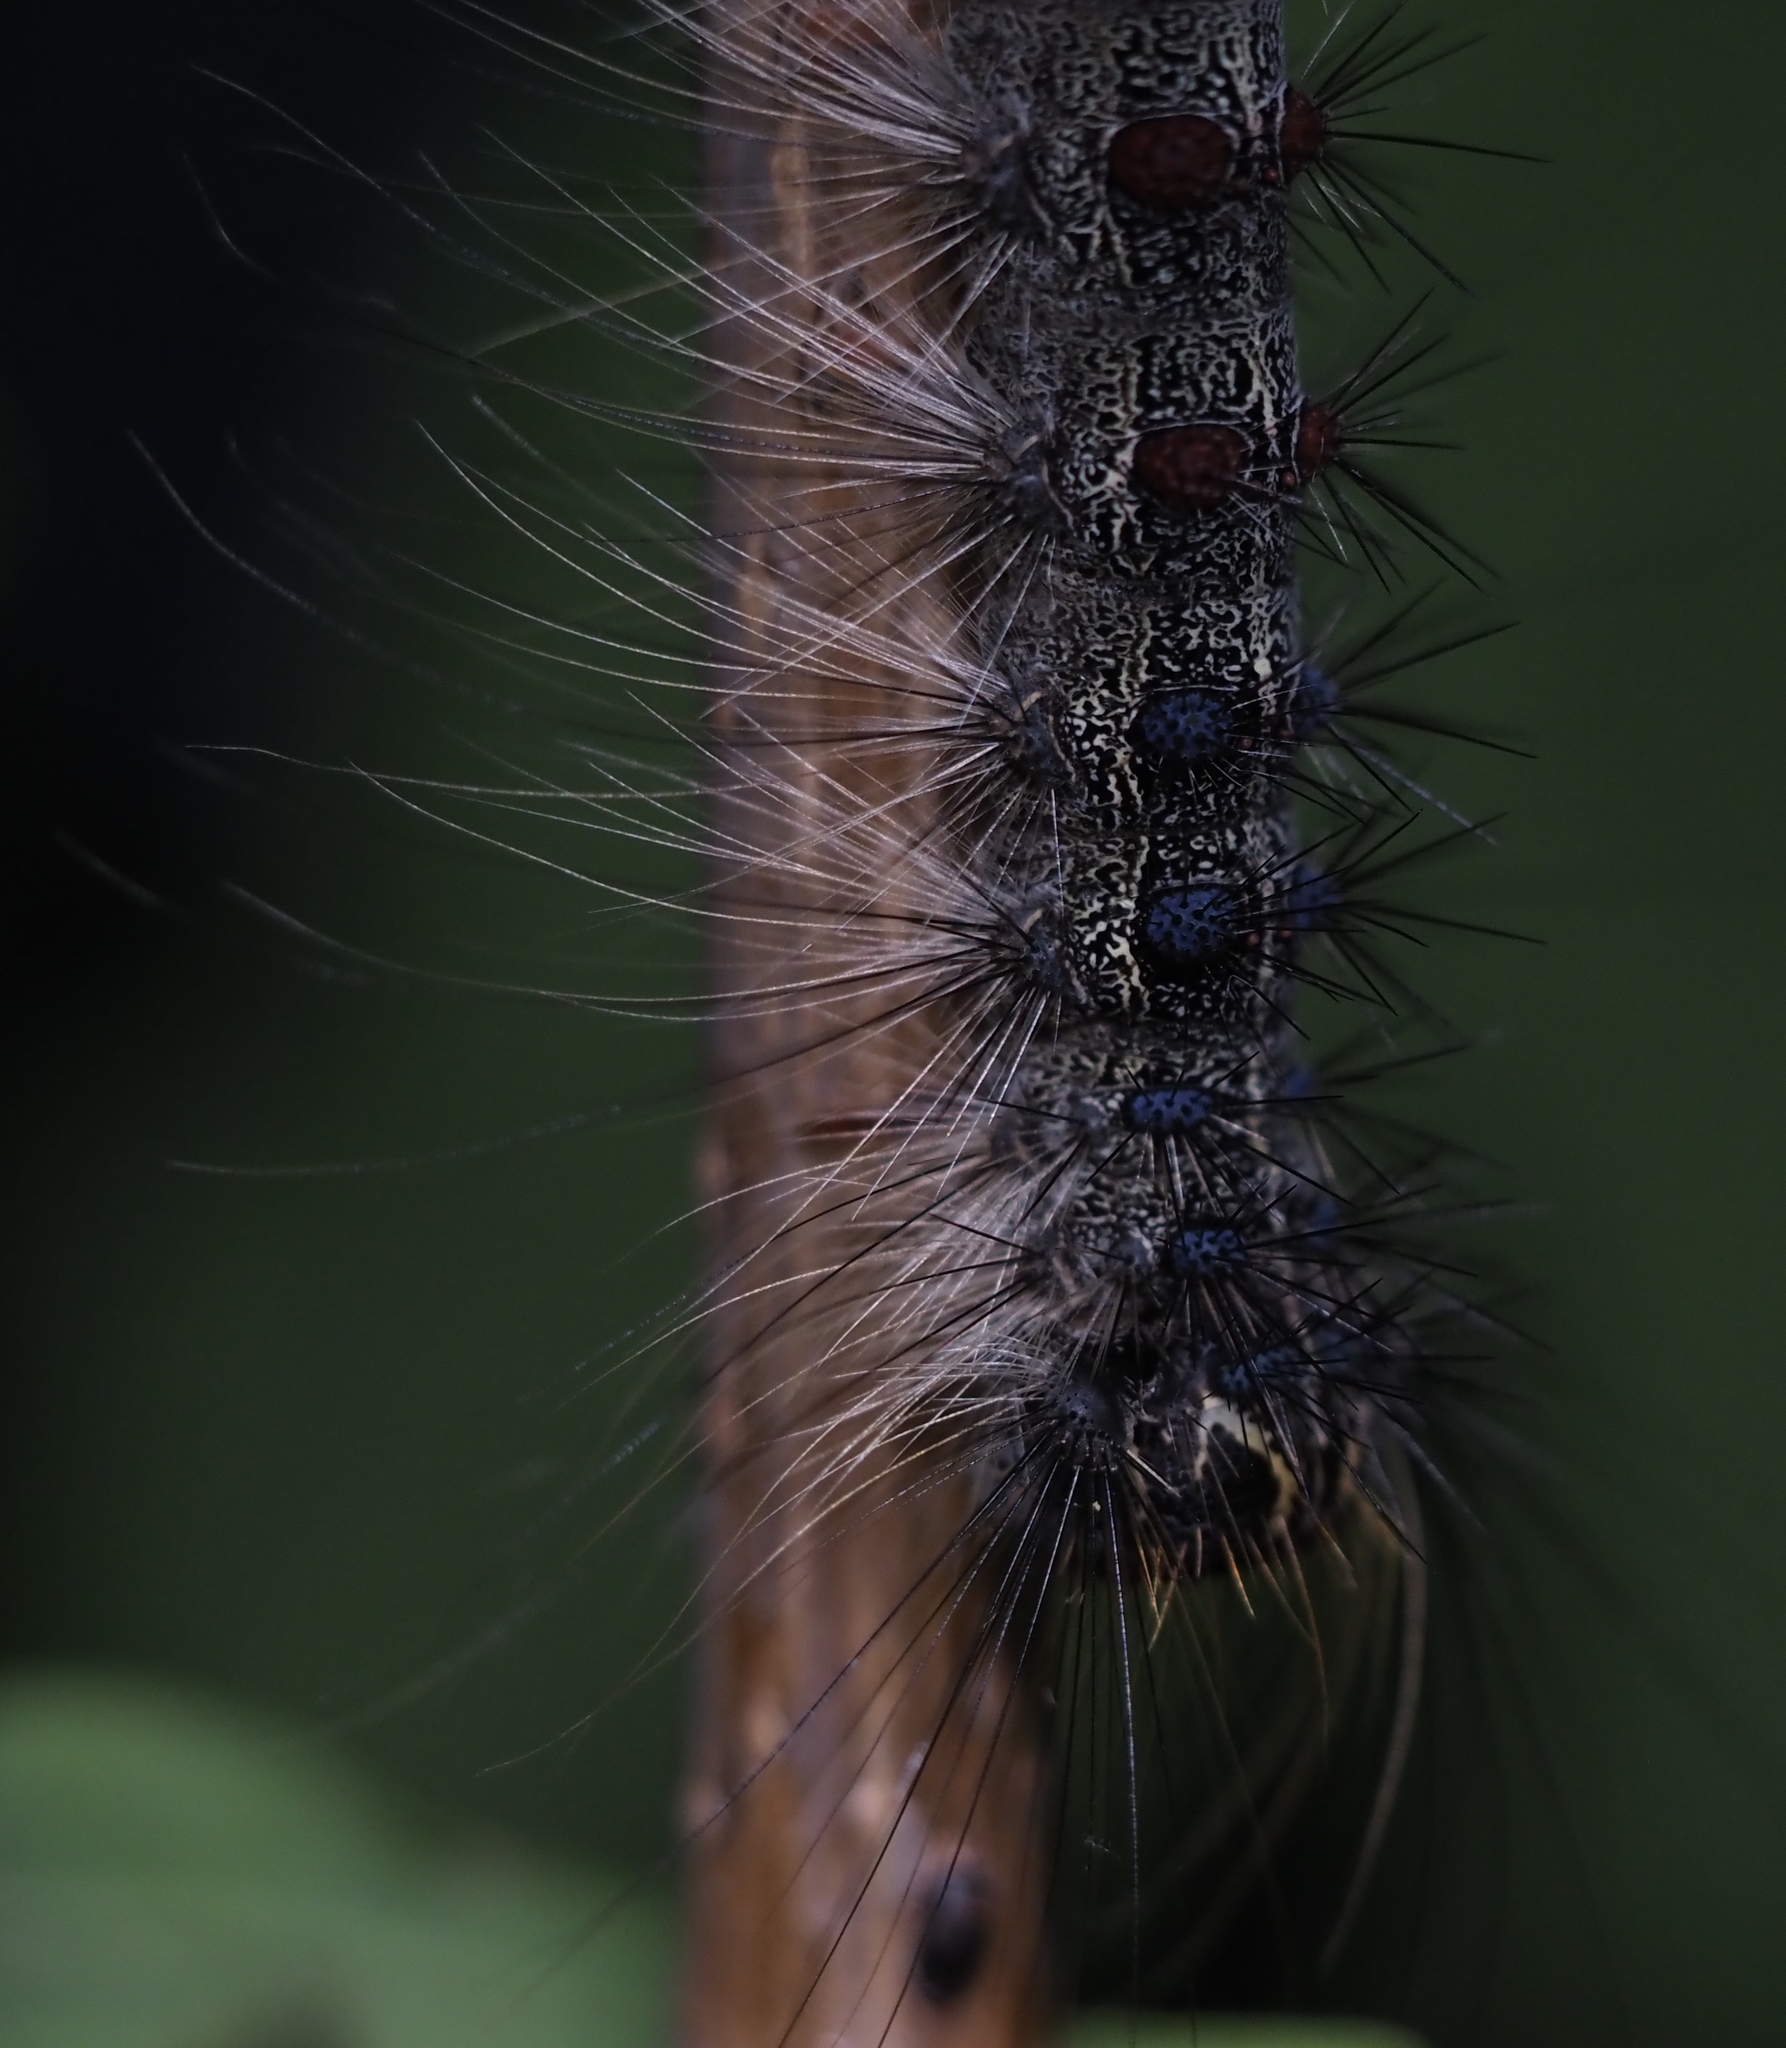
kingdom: Animalia
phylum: Arthropoda
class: Insecta
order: Lepidoptera
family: Erebidae
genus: Lymantria
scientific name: Lymantria dispar
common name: Gypsy moth
